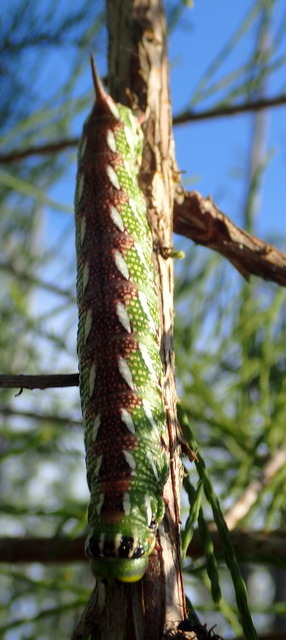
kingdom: Animalia
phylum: Arthropoda
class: Insecta
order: Lepidoptera
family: Sphingidae
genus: Isoparce
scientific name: Isoparce cupressi
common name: Cypress sphinx
